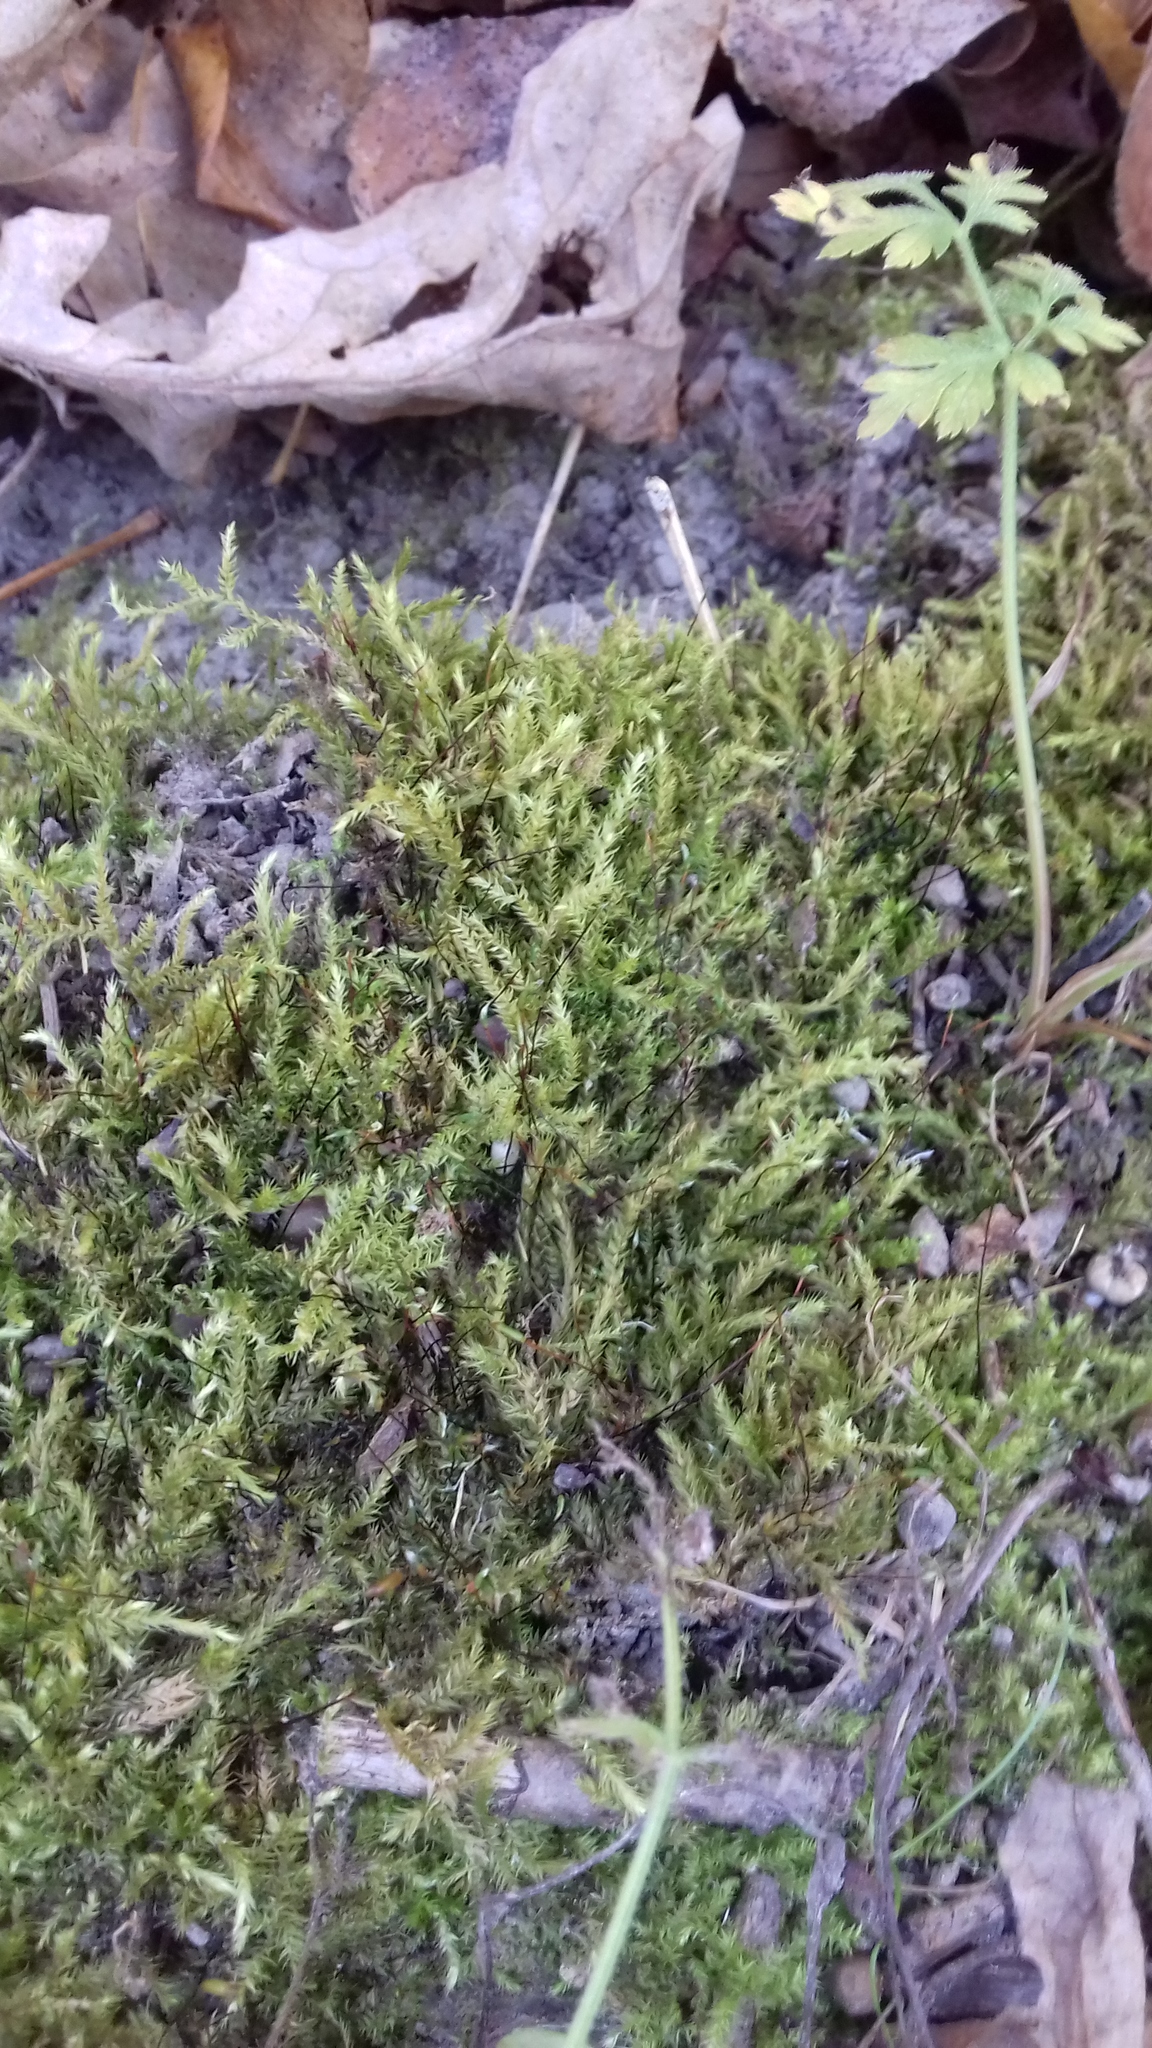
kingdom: Plantae
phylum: Bryophyta
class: Bryopsida
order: Hypnales
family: Brachytheciaceae
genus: Brachythecium
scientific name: Brachythecium rutabulum
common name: Rough-stalked feather-moss
